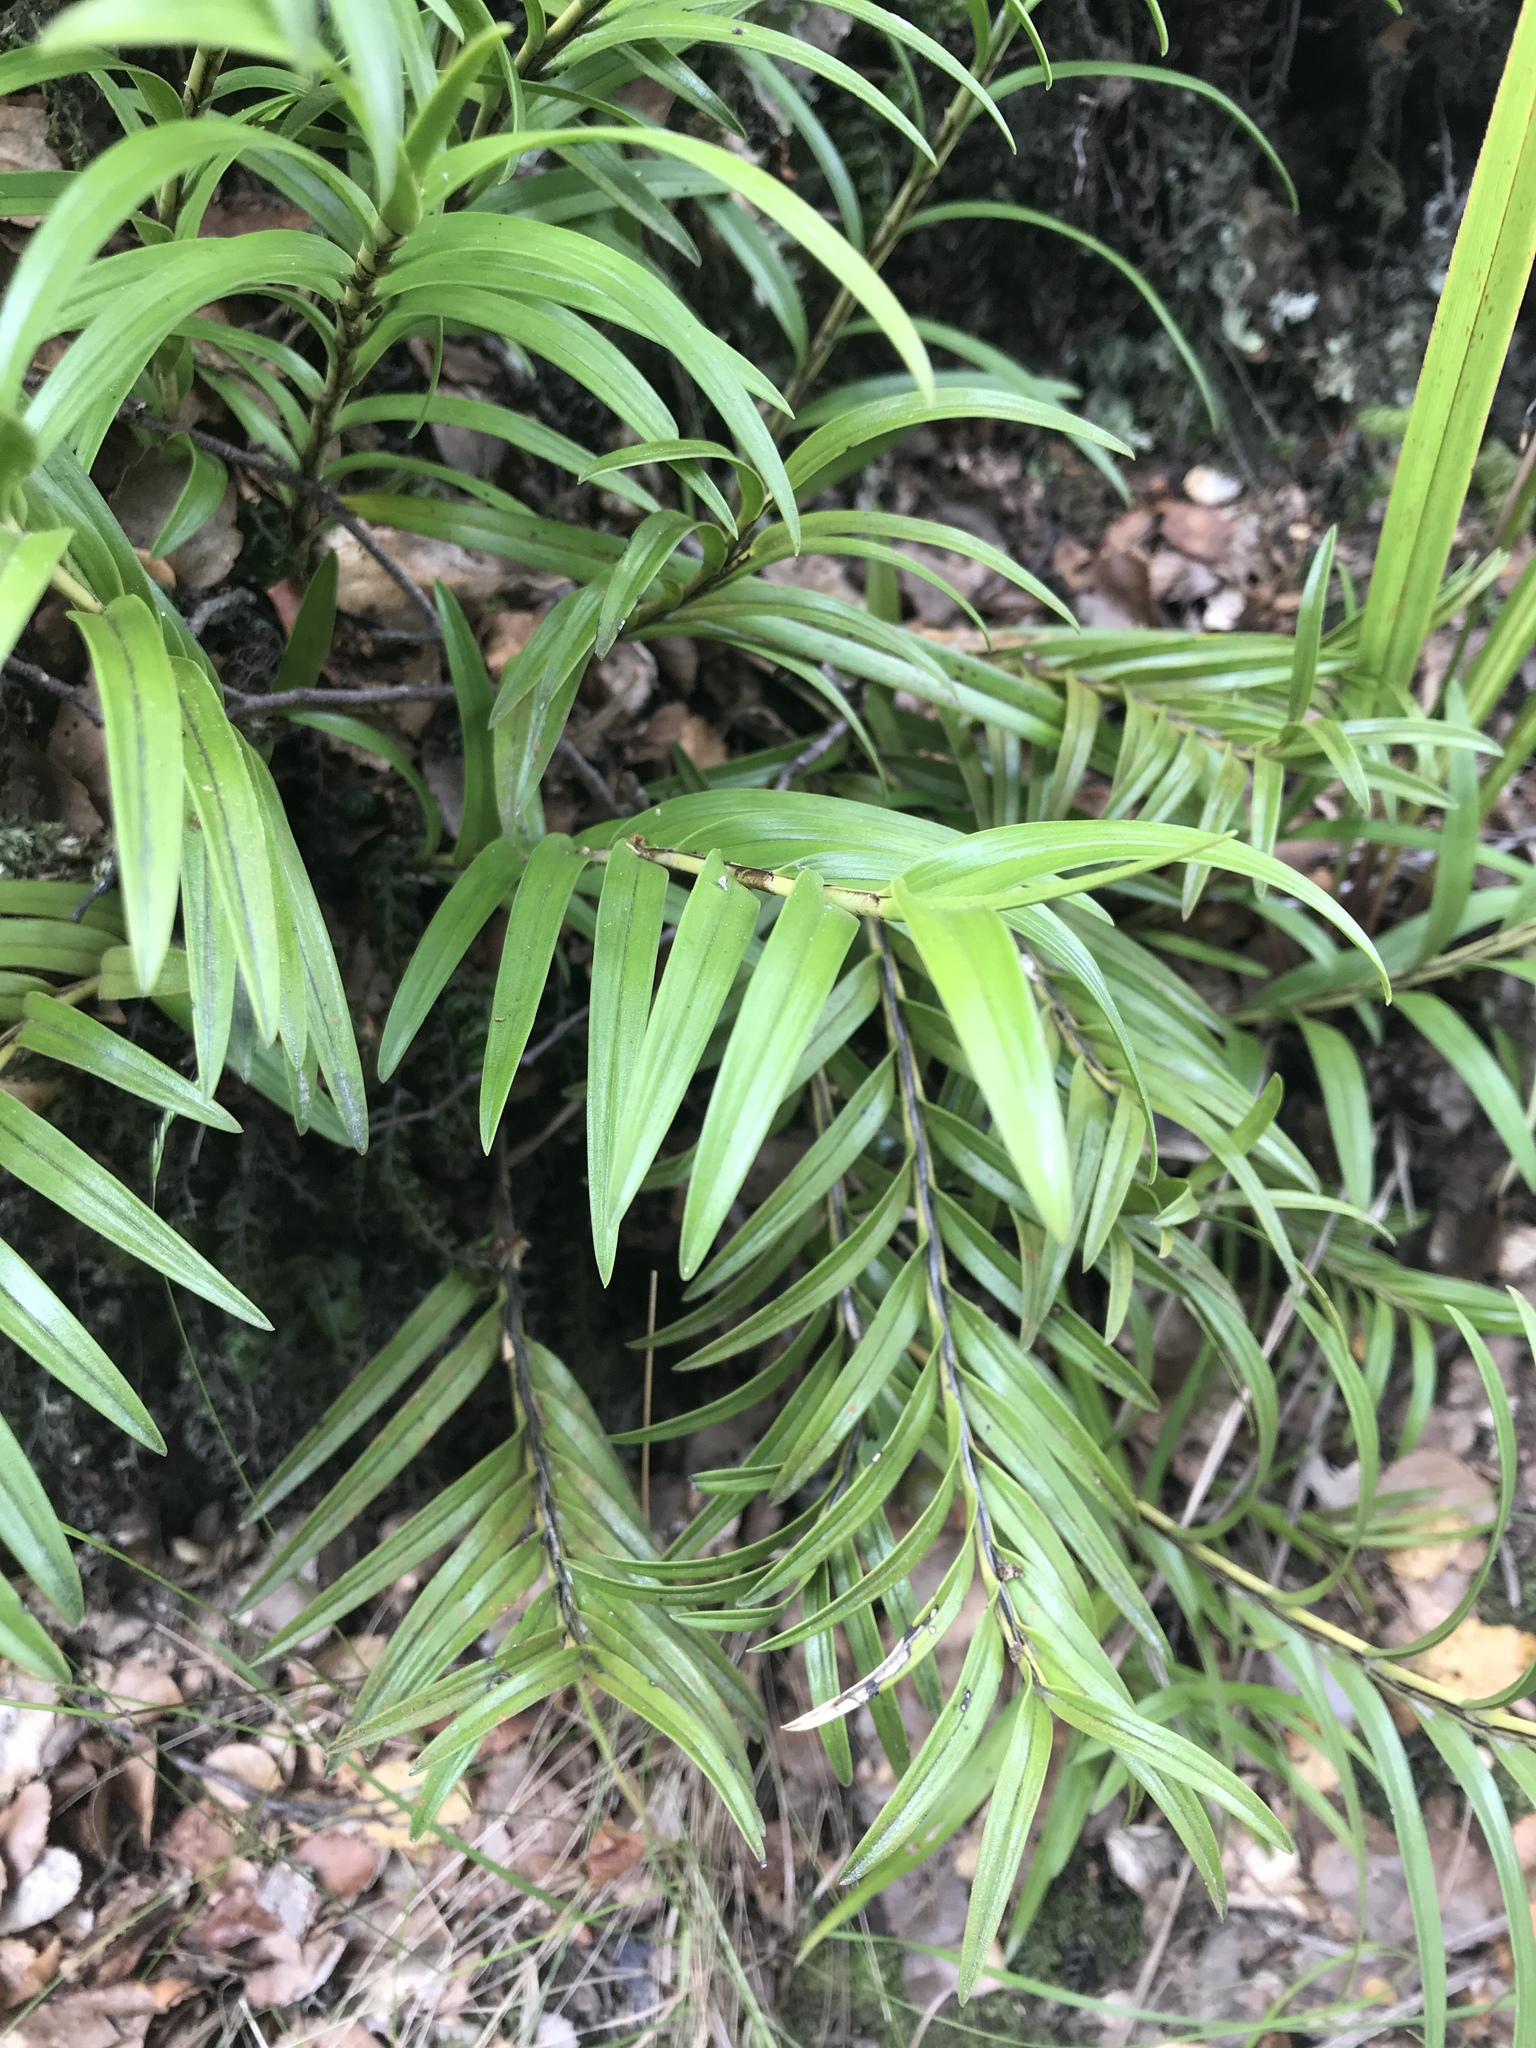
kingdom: Plantae
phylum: Tracheophyta
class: Liliopsida
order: Asparagales
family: Orchidaceae
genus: Earina
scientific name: Earina autumnalis
